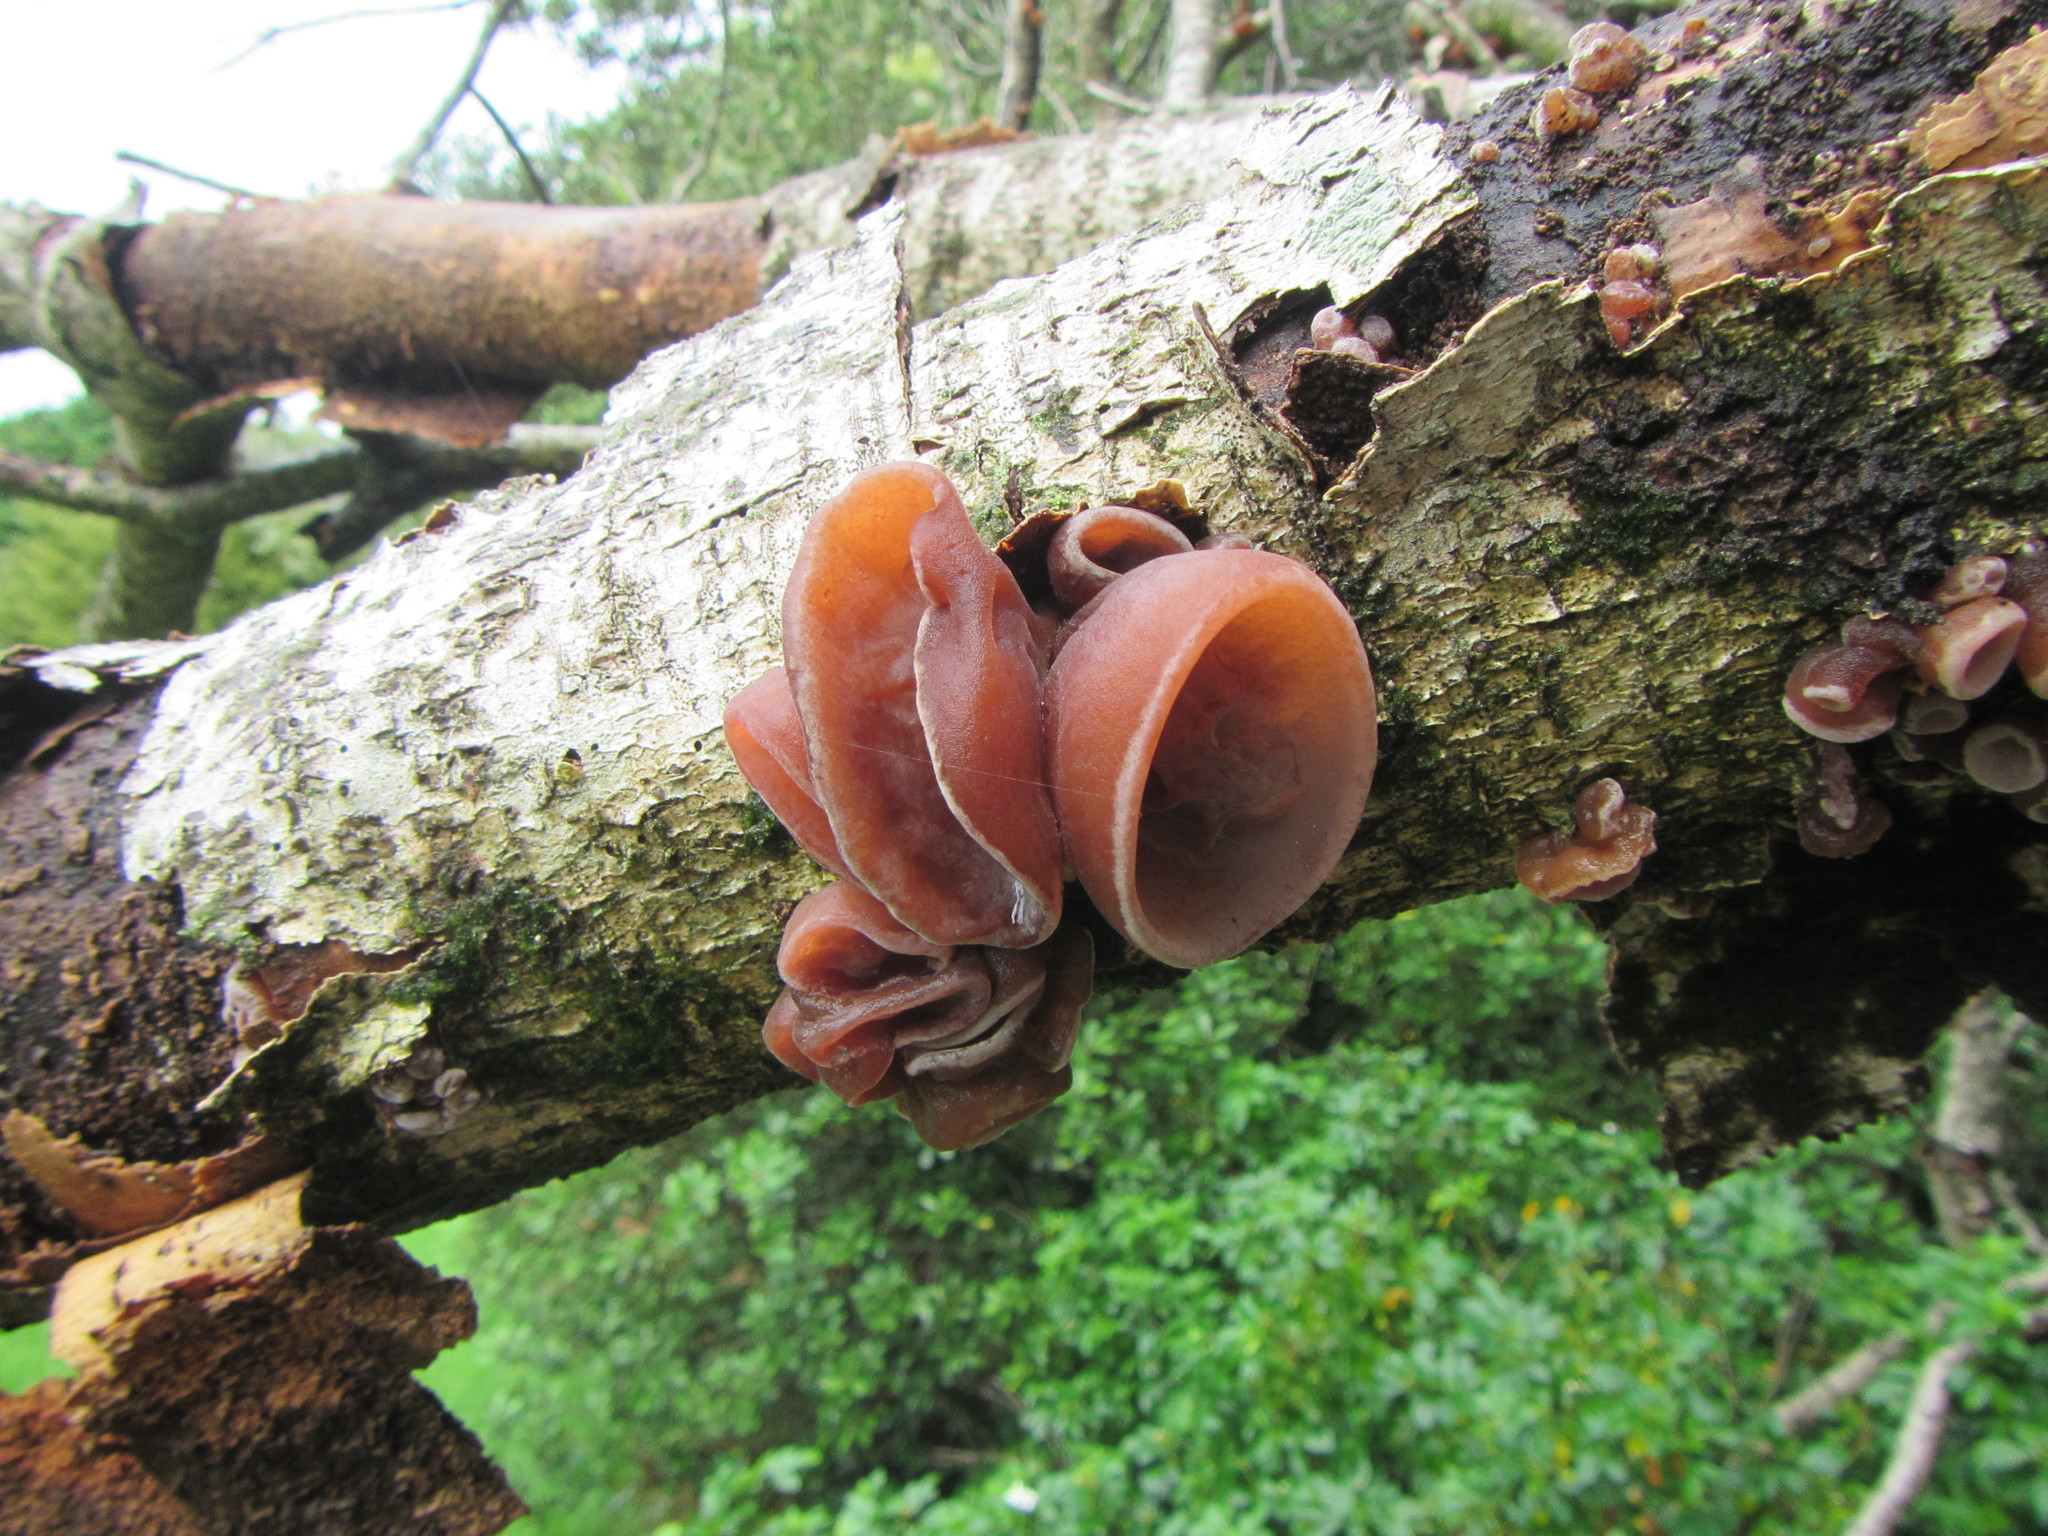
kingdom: Fungi
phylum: Basidiomycota
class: Agaricomycetes
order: Auriculariales
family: Auriculariaceae
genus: Auricularia
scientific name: Auricularia cornea
